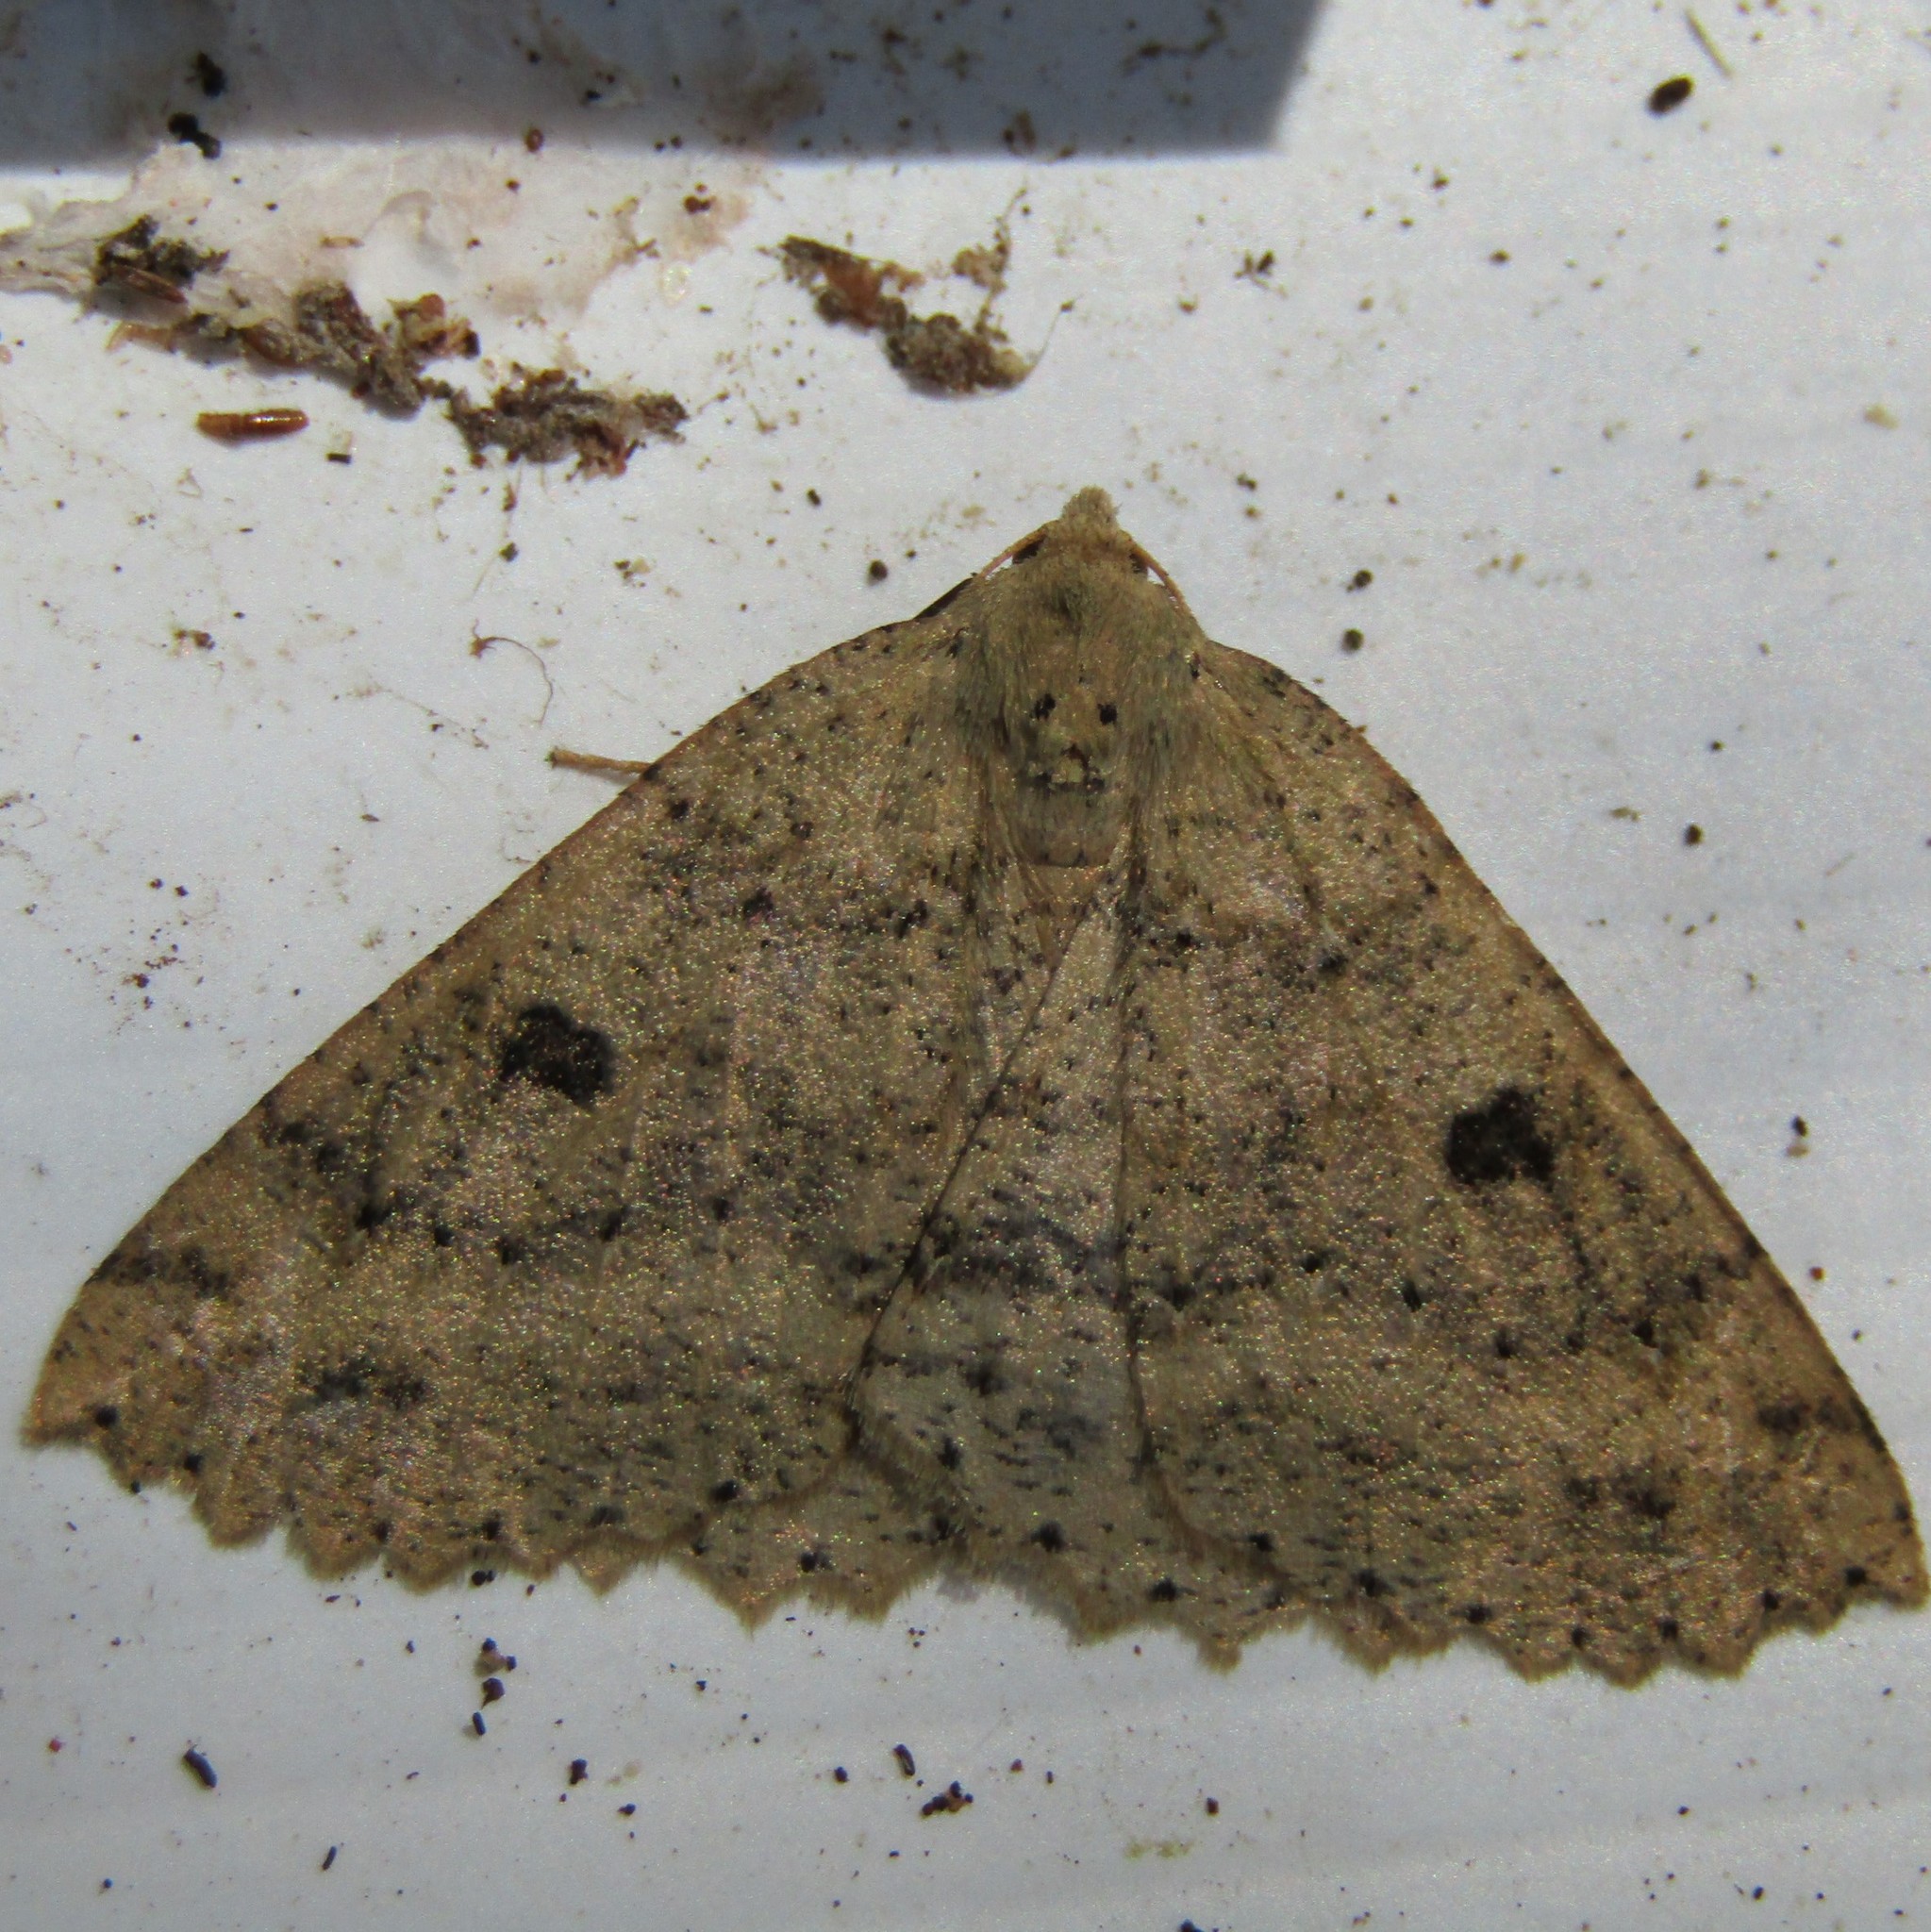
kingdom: Animalia
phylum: Arthropoda
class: Insecta
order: Lepidoptera
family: Geometridae
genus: Cleora
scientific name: Cleora scriptaria
